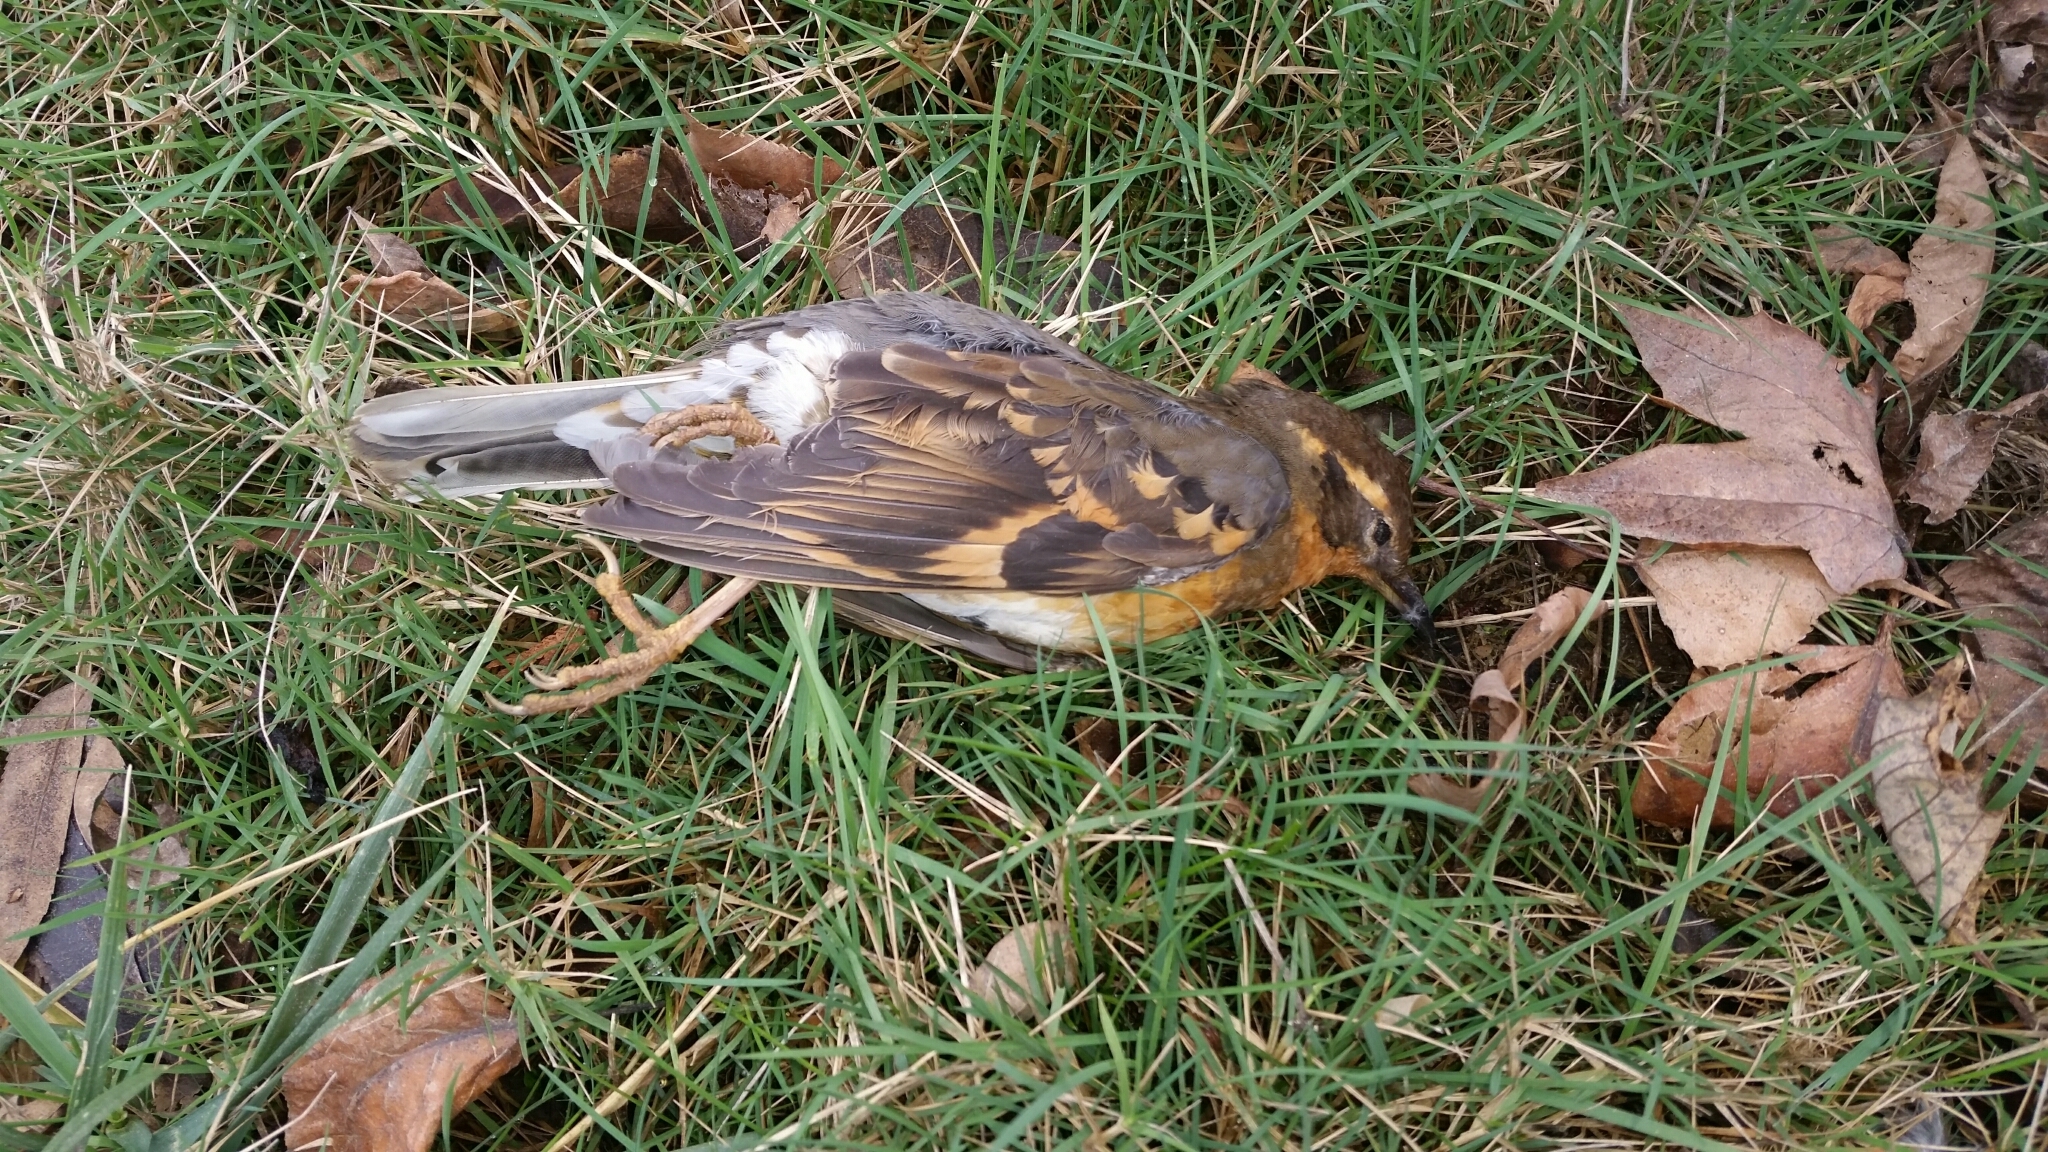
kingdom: Animalia
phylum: Chordata
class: Aves
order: Passeriformes
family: Turdidae
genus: Ixoreus
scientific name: Ixoreus naevius
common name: Varied thrush
